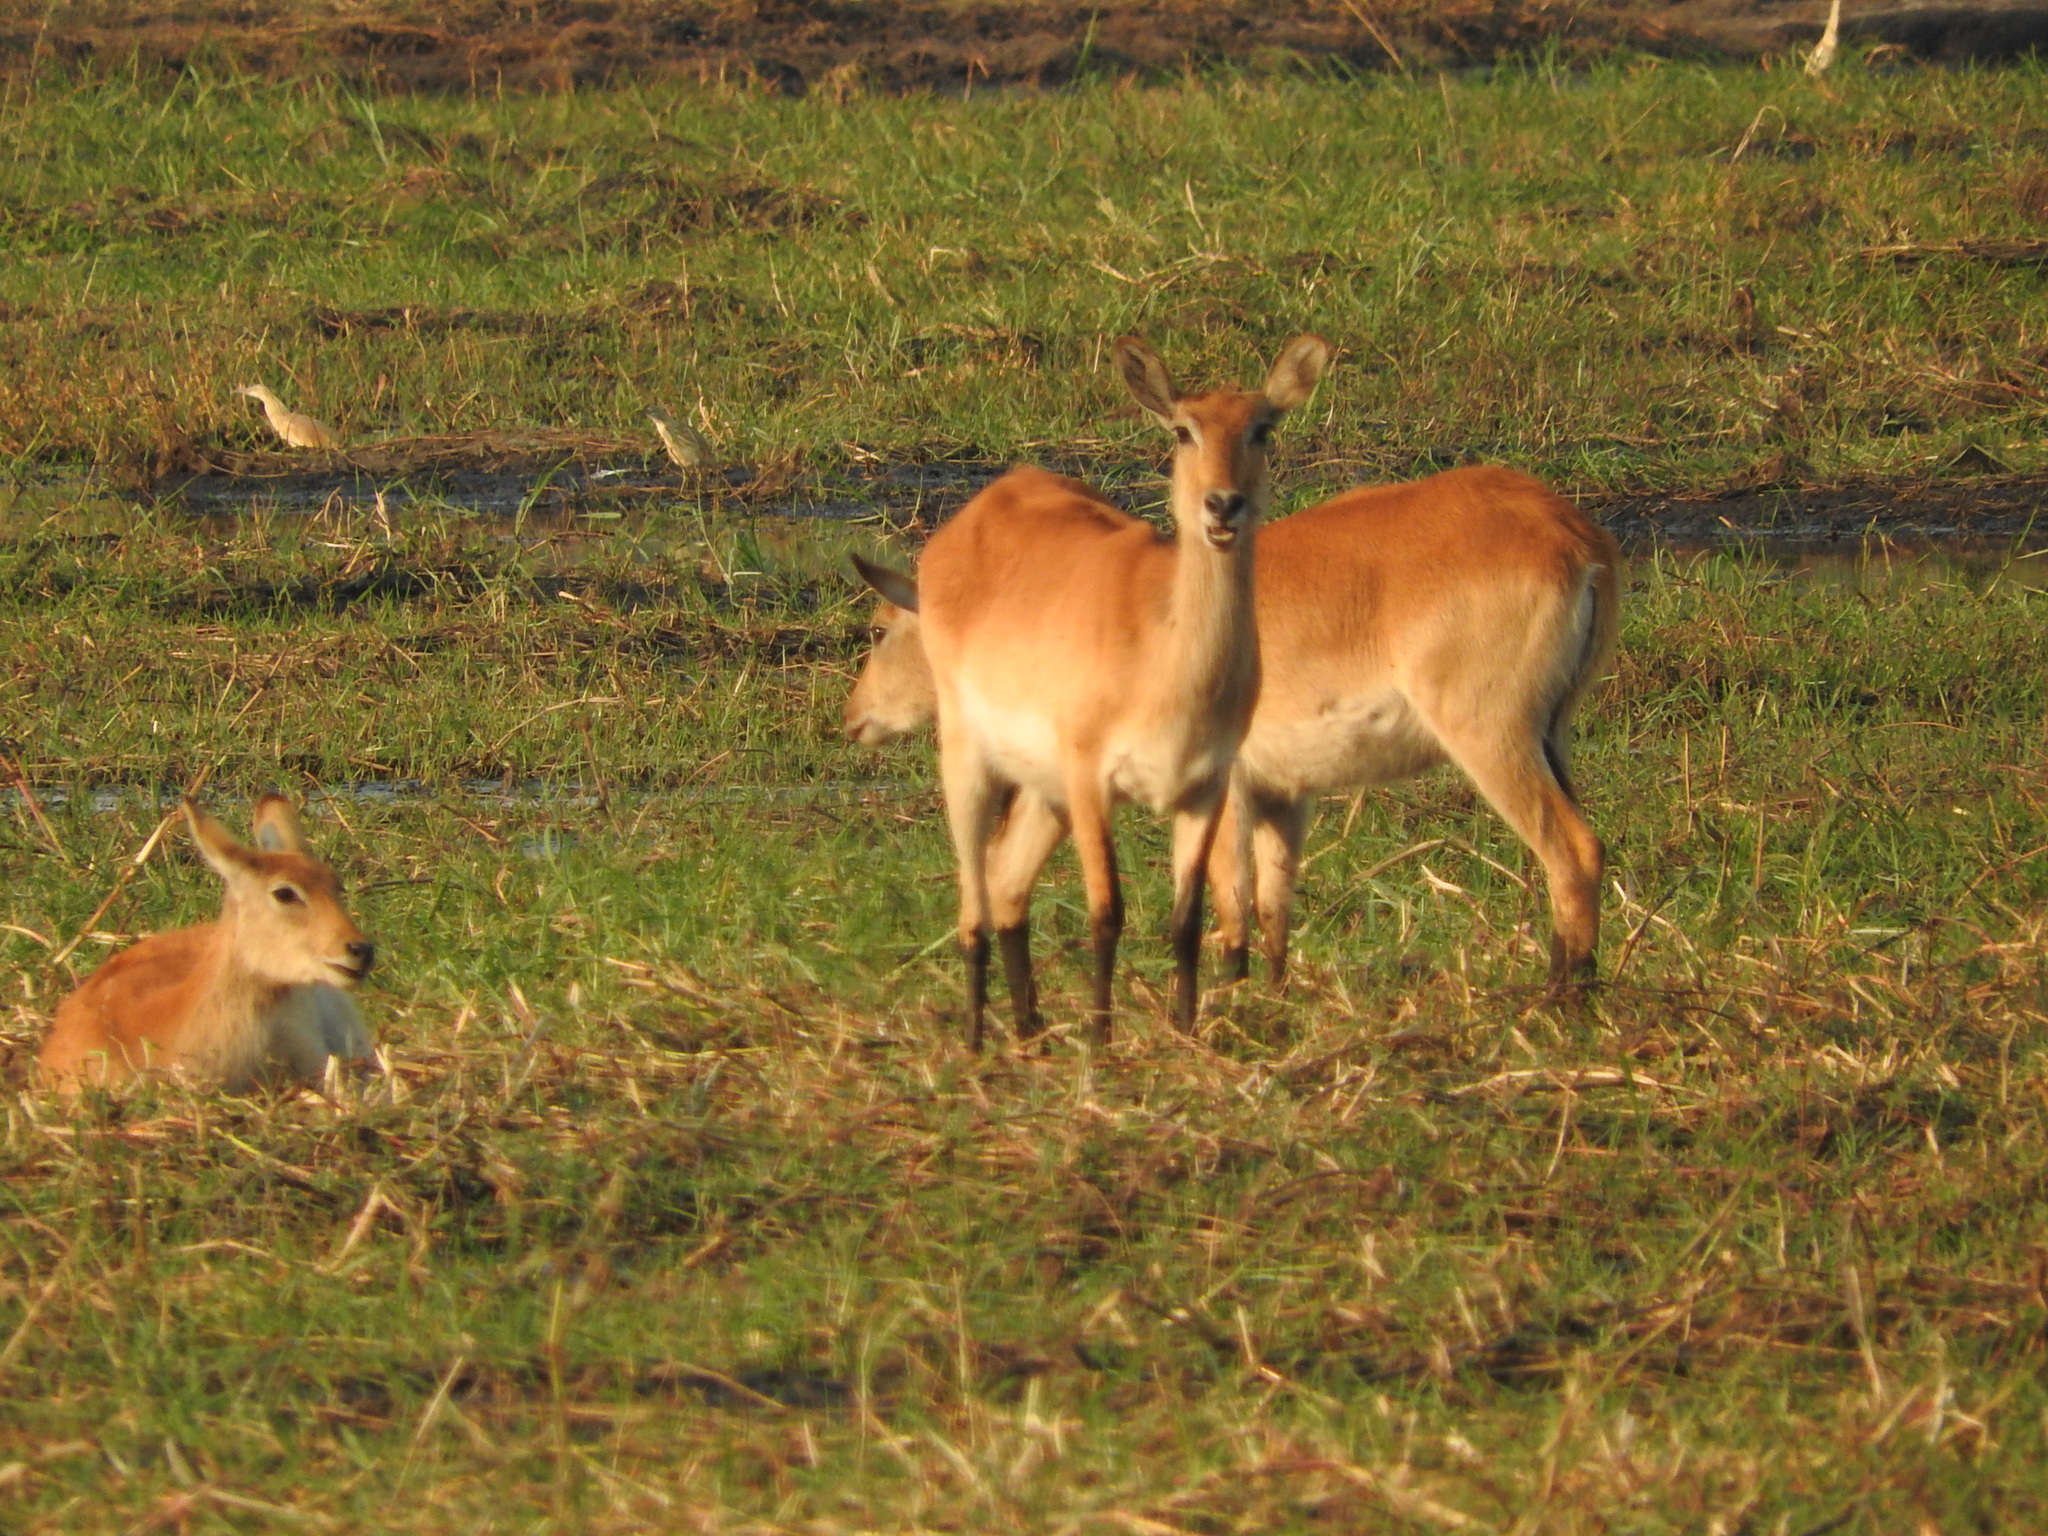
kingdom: Animalia
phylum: Chordata
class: Mammalia
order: Artiodactyla
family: Bovidae
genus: Kobus
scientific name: Kobus leche
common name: Lechwe
